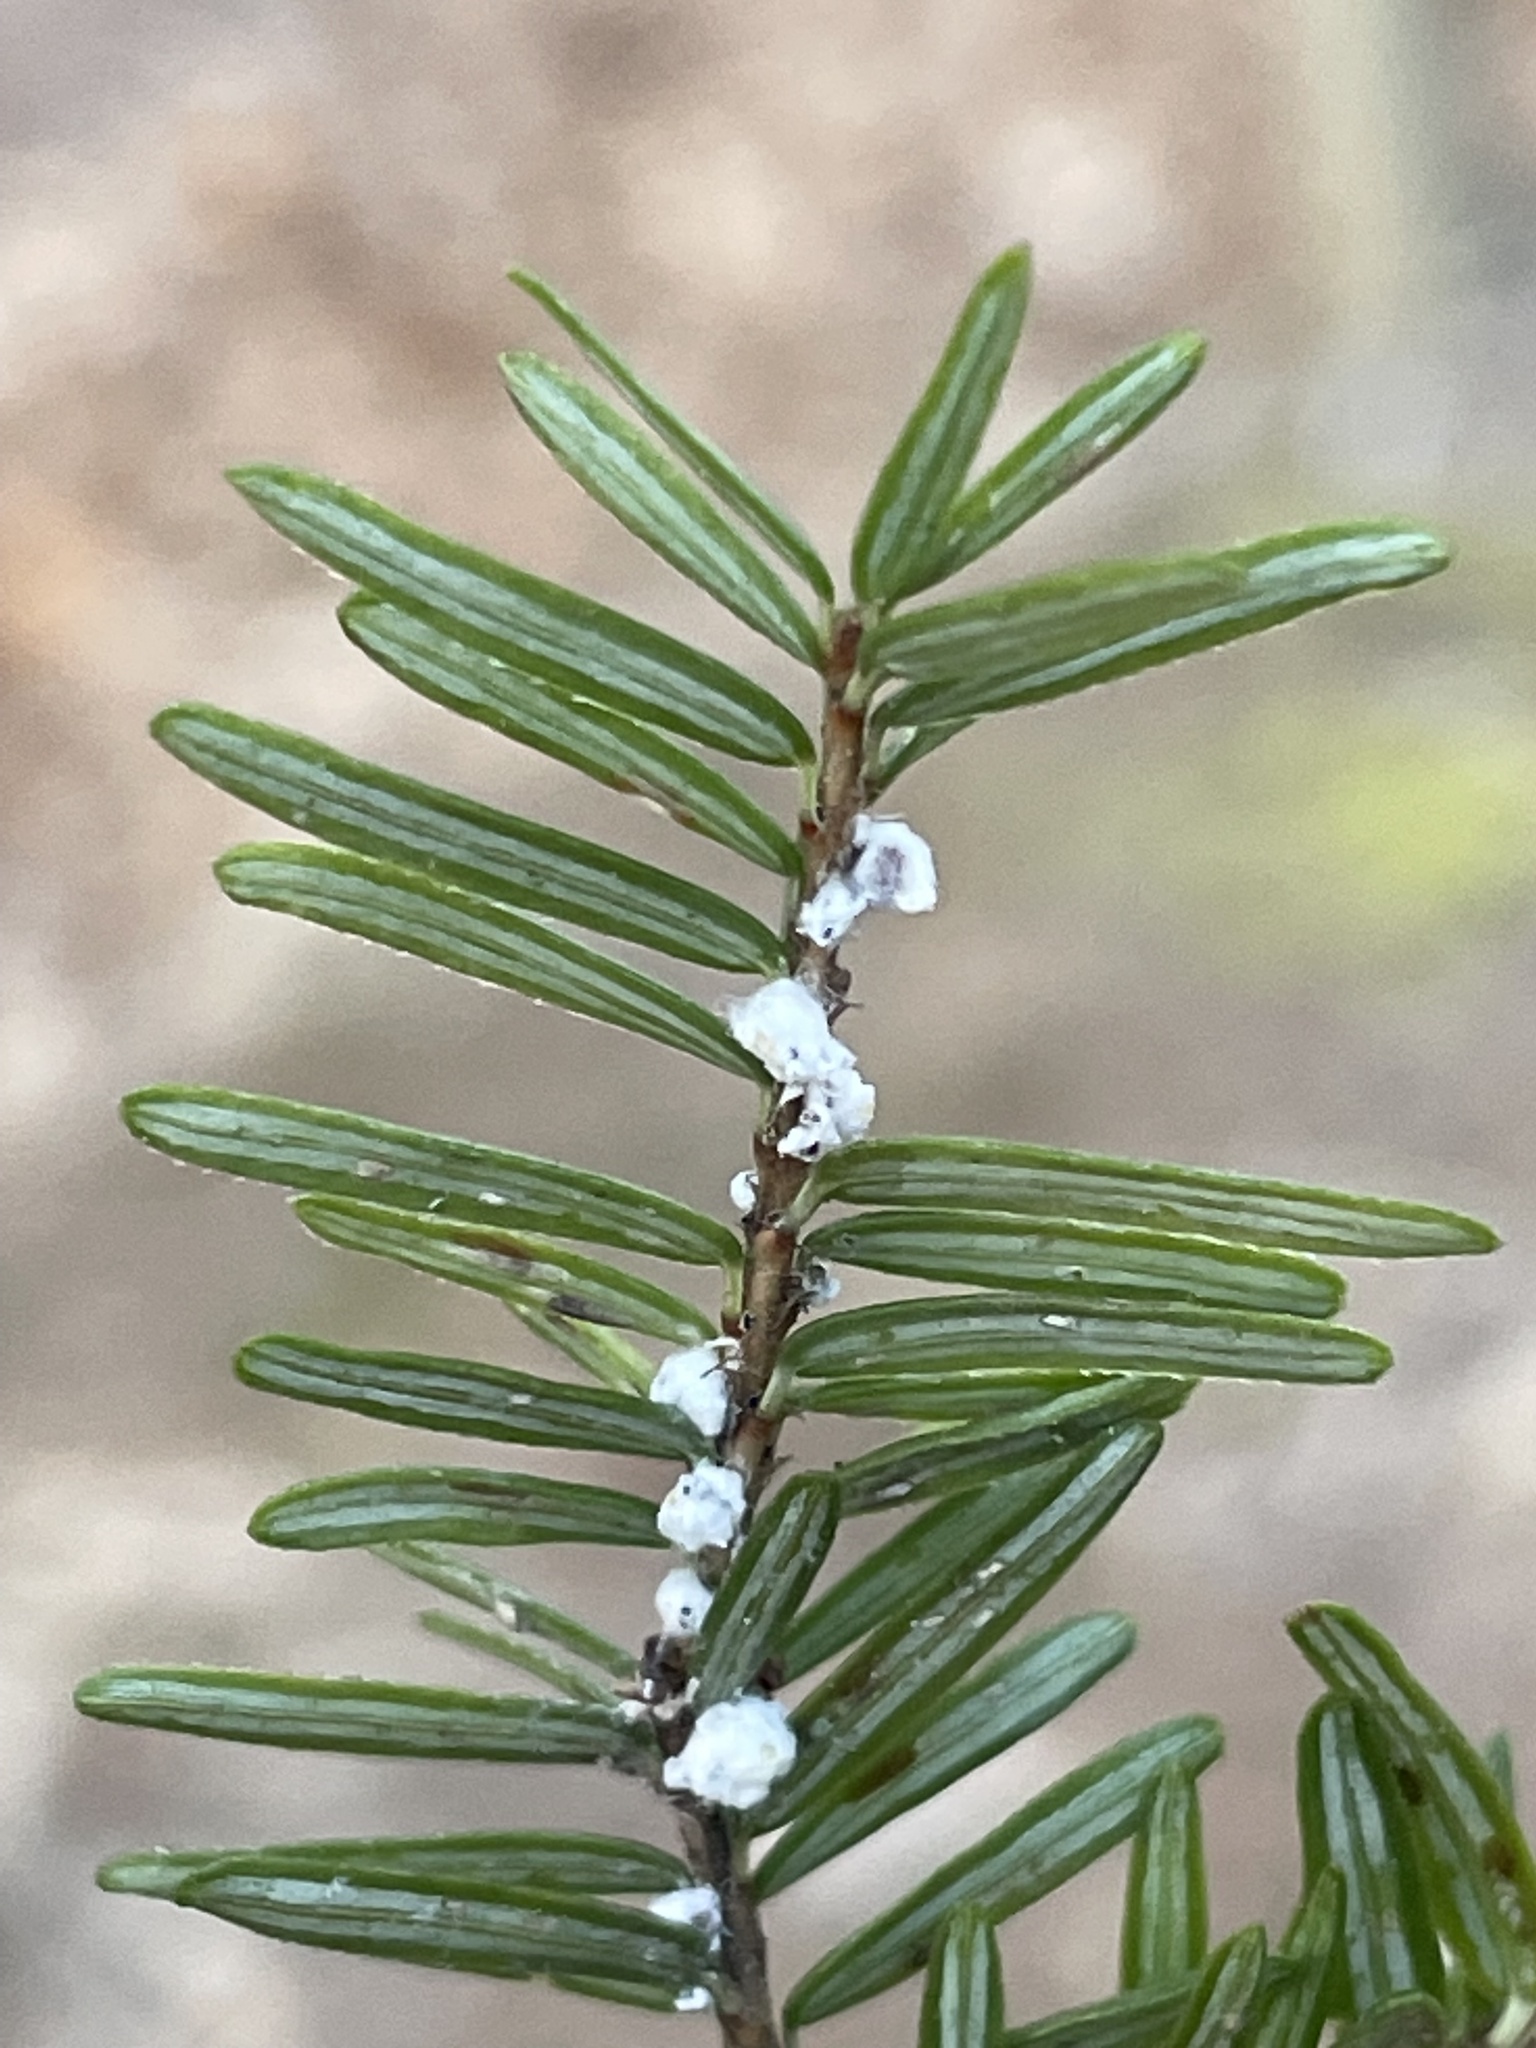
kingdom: Animalia
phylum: Arthropoda
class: Insecta
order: Hemiptera
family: Adelgidae
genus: Adelges
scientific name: Adelges tsugae
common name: Hemlock woolly adelgid
